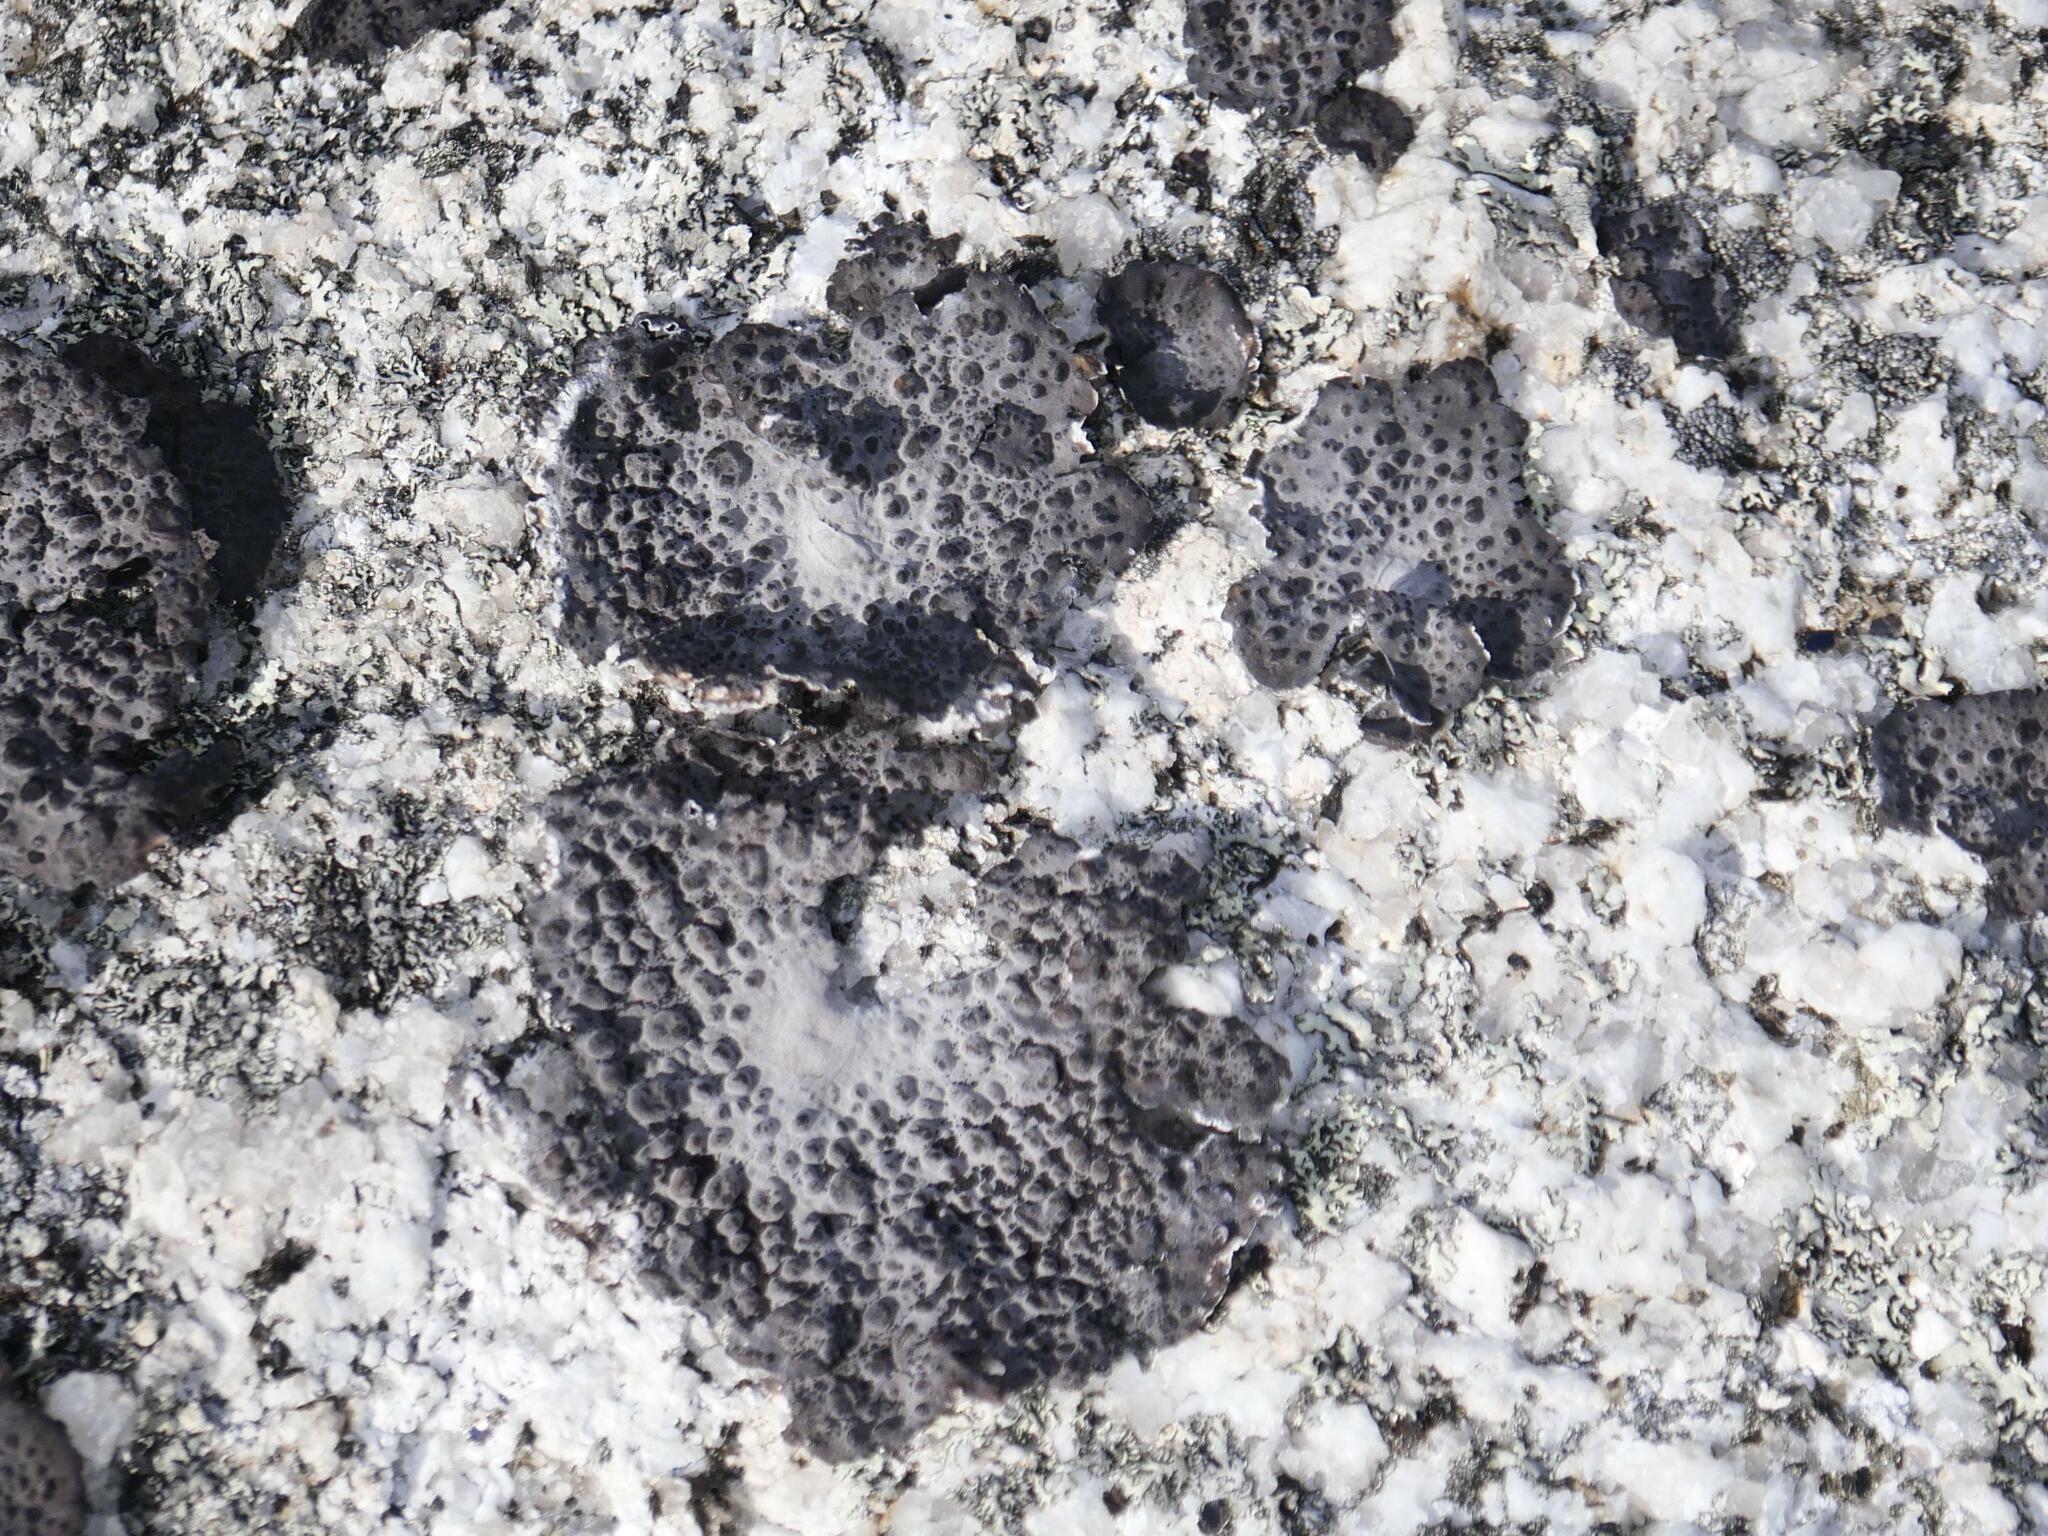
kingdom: Fungi
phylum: Ascomycota
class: Lecanoromycetes
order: Umbilicariales
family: Umbilicariaceae
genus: Lasallia
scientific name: Lasallia papulosa
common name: Common toadskin lichen
